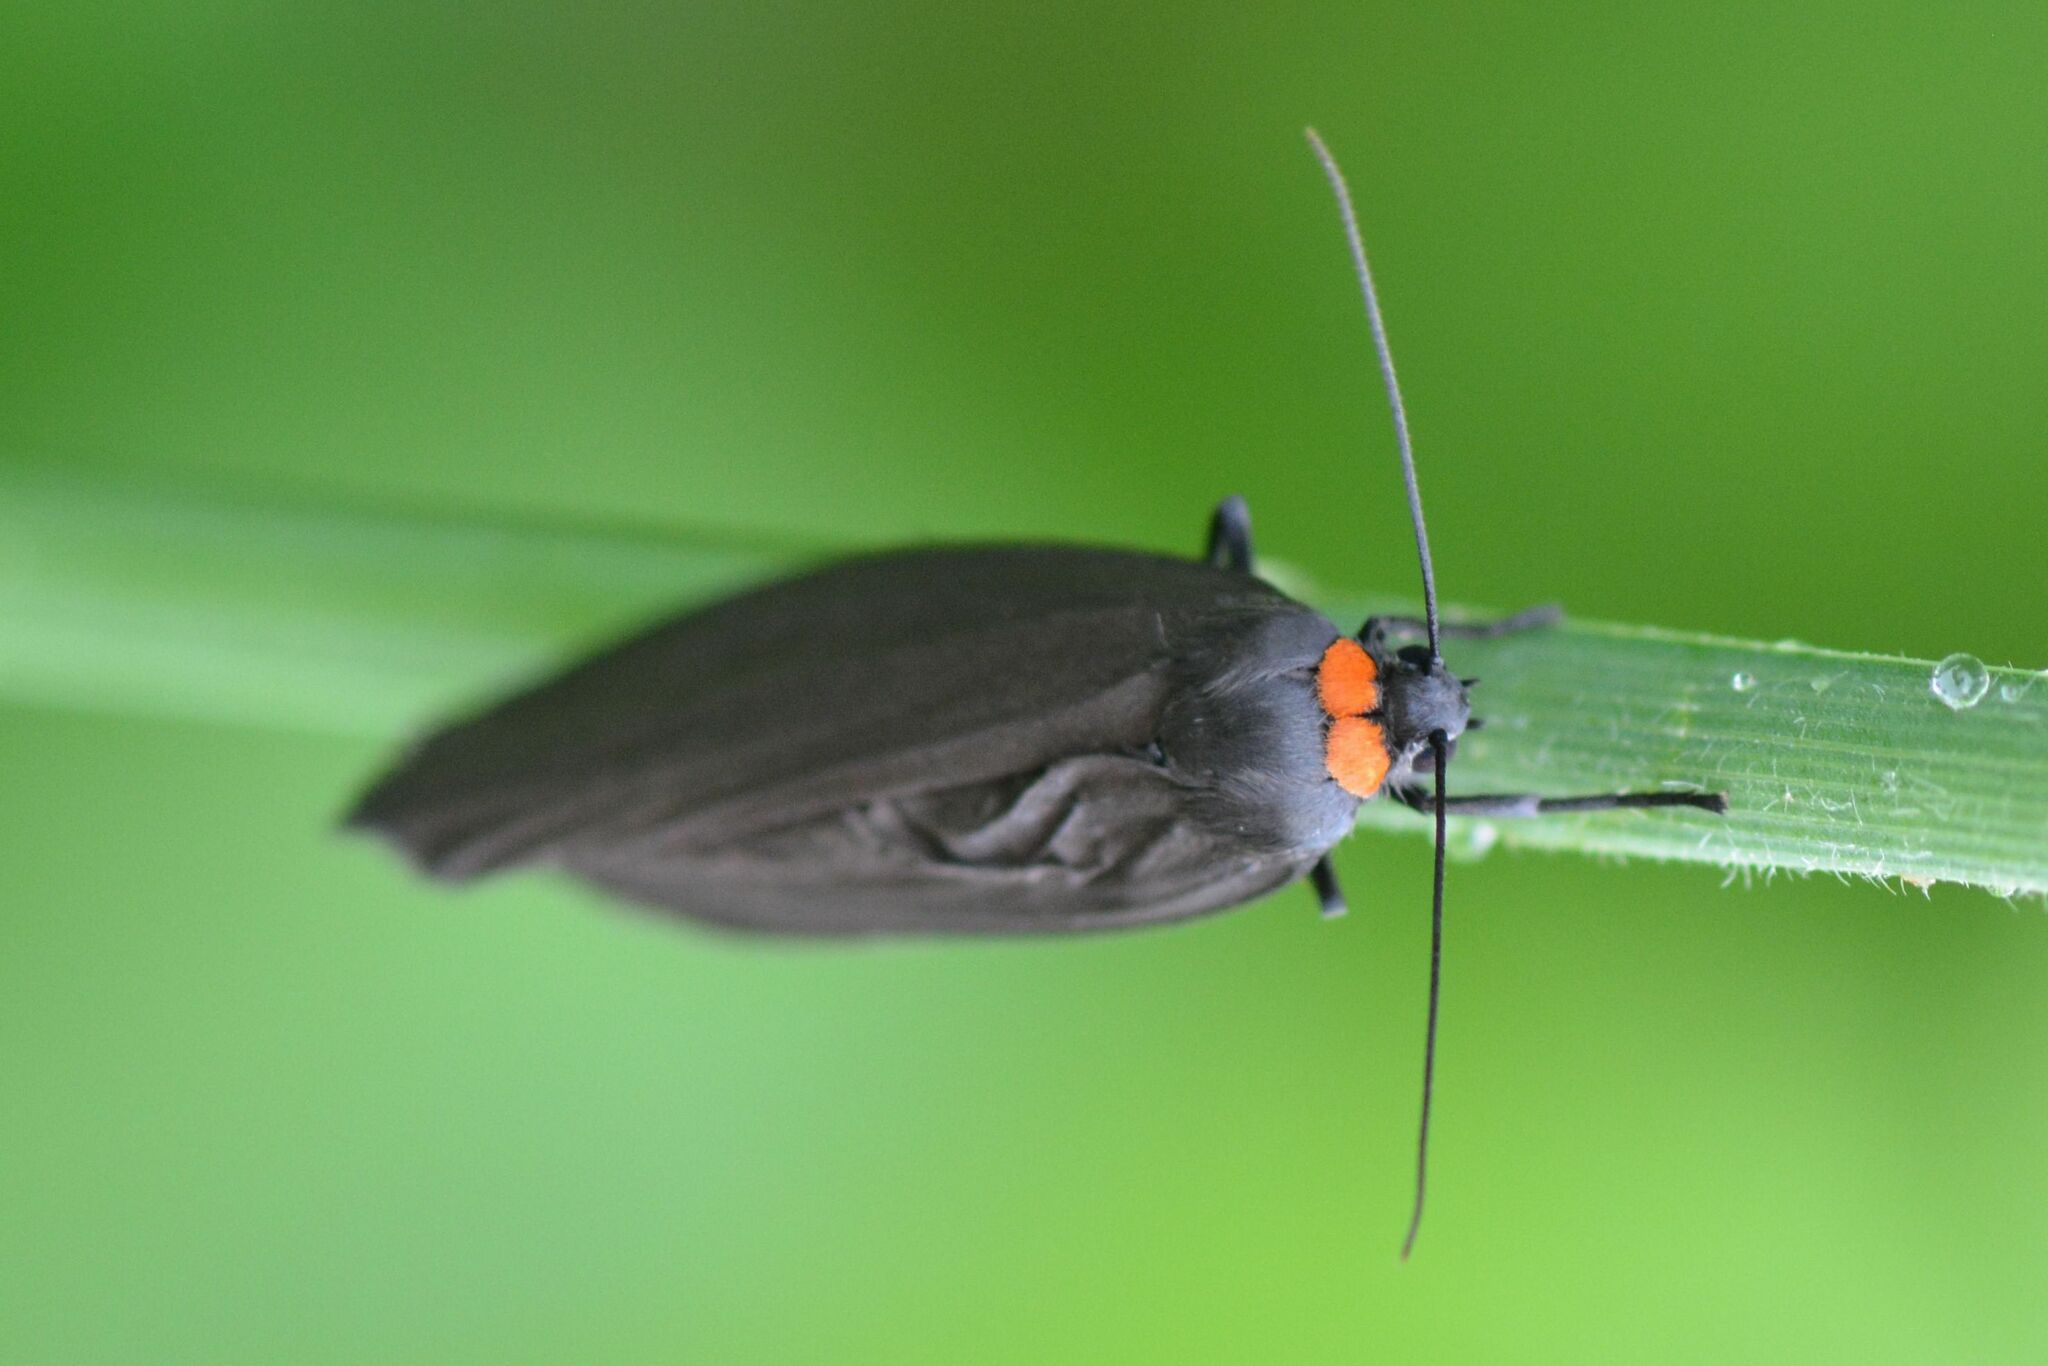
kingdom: Animalia
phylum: Arthropoda
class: Insecta
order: Lepidoptera
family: Erebidae
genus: Atolmis
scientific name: Atolmis rubricollis
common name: Red-necked footman
